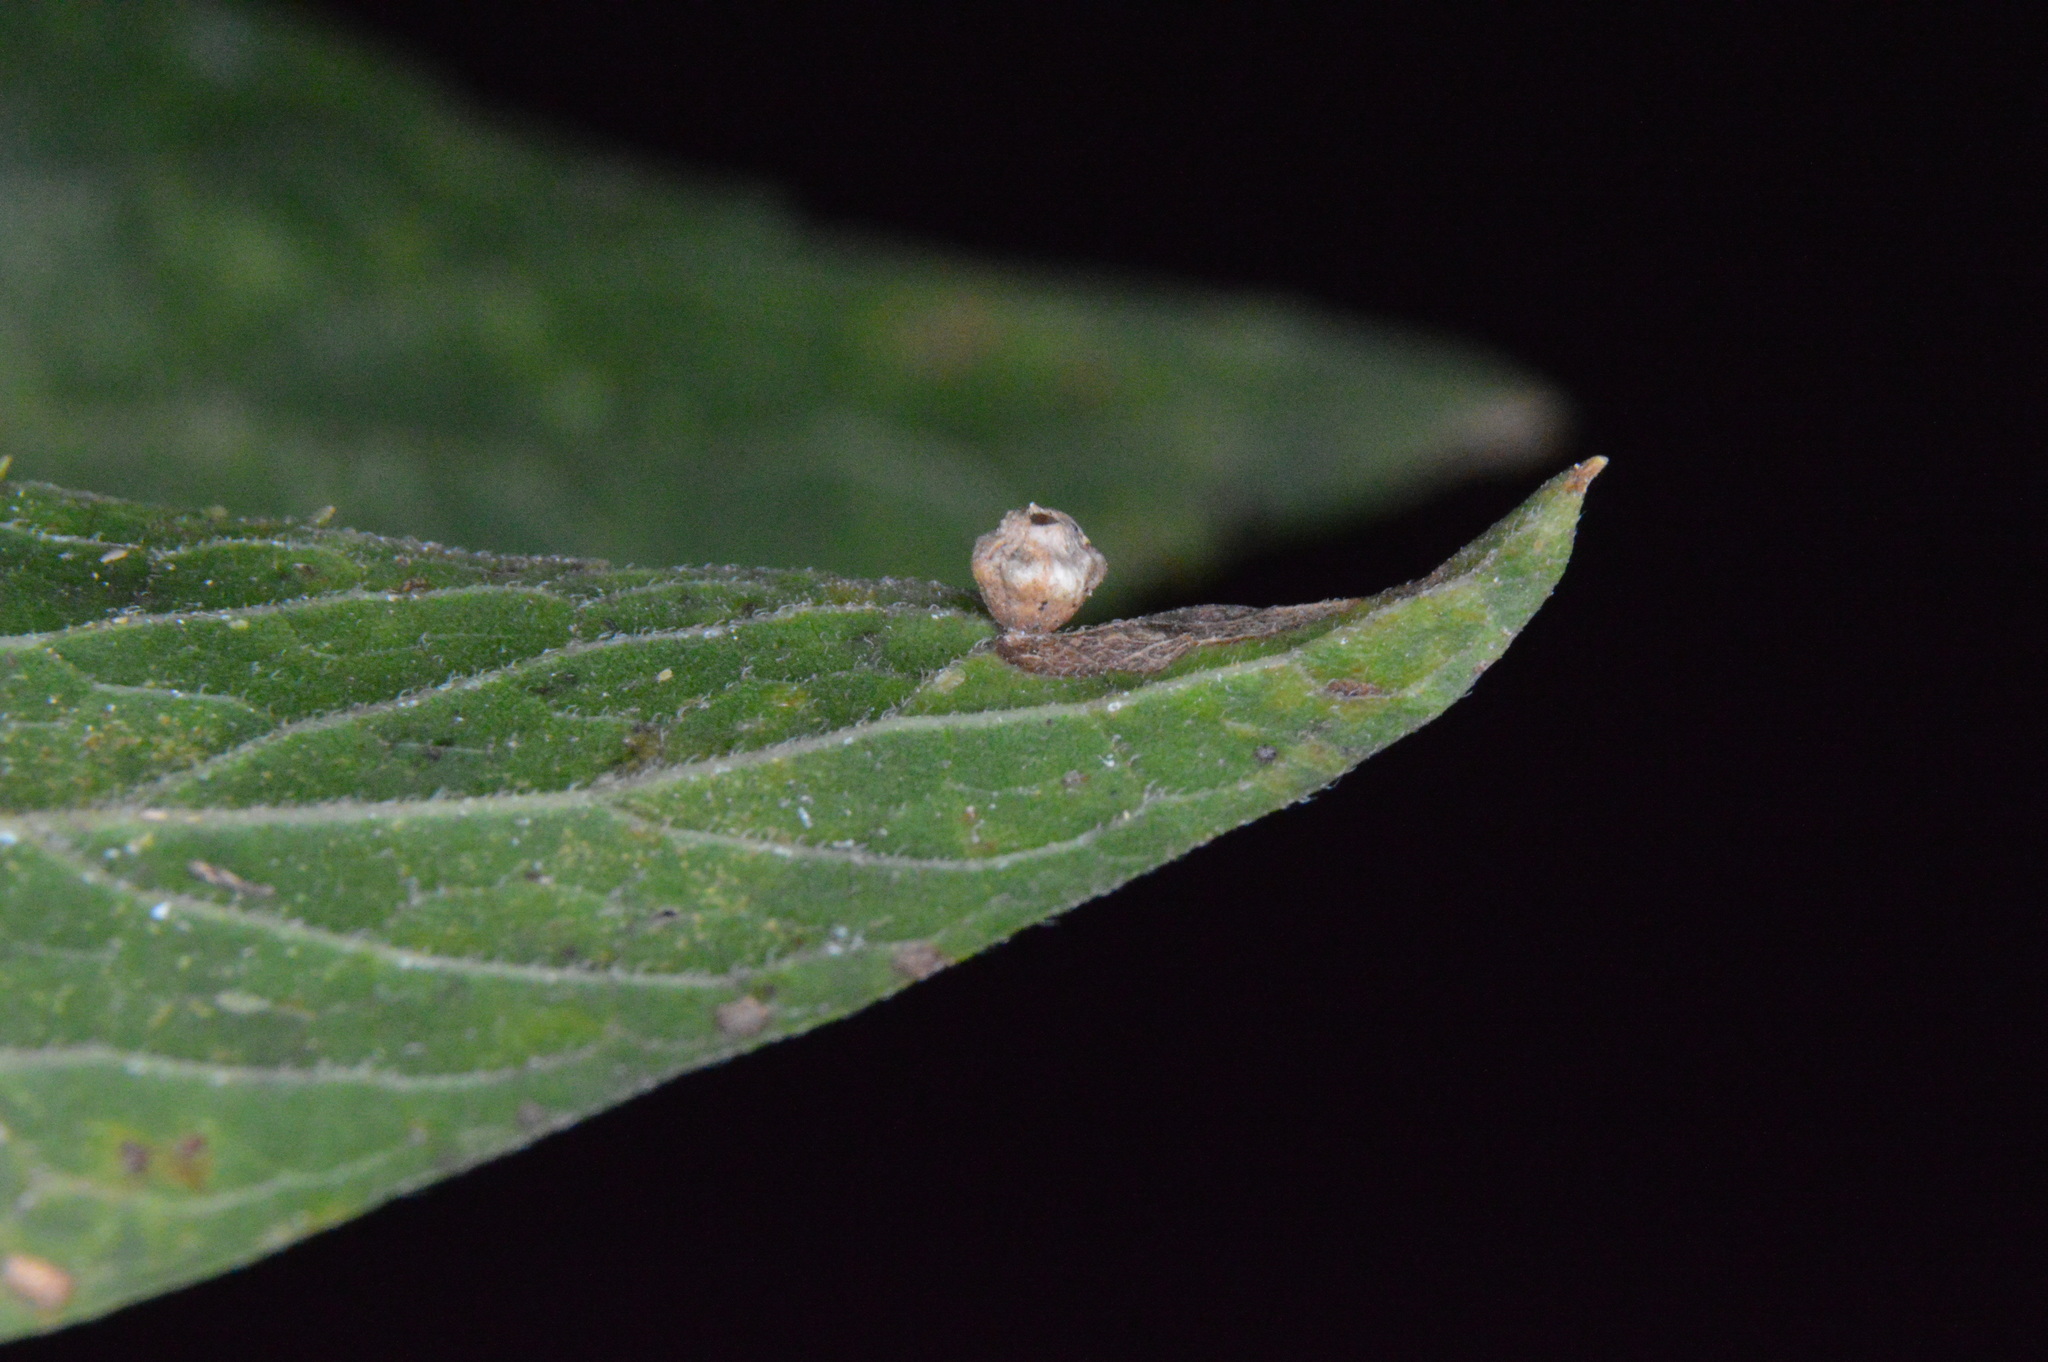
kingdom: Animalia
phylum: Arthropoda
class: Insecta
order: Diptera
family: Cecidomyiidae
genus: Celticecis
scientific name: Celticecis globosa
